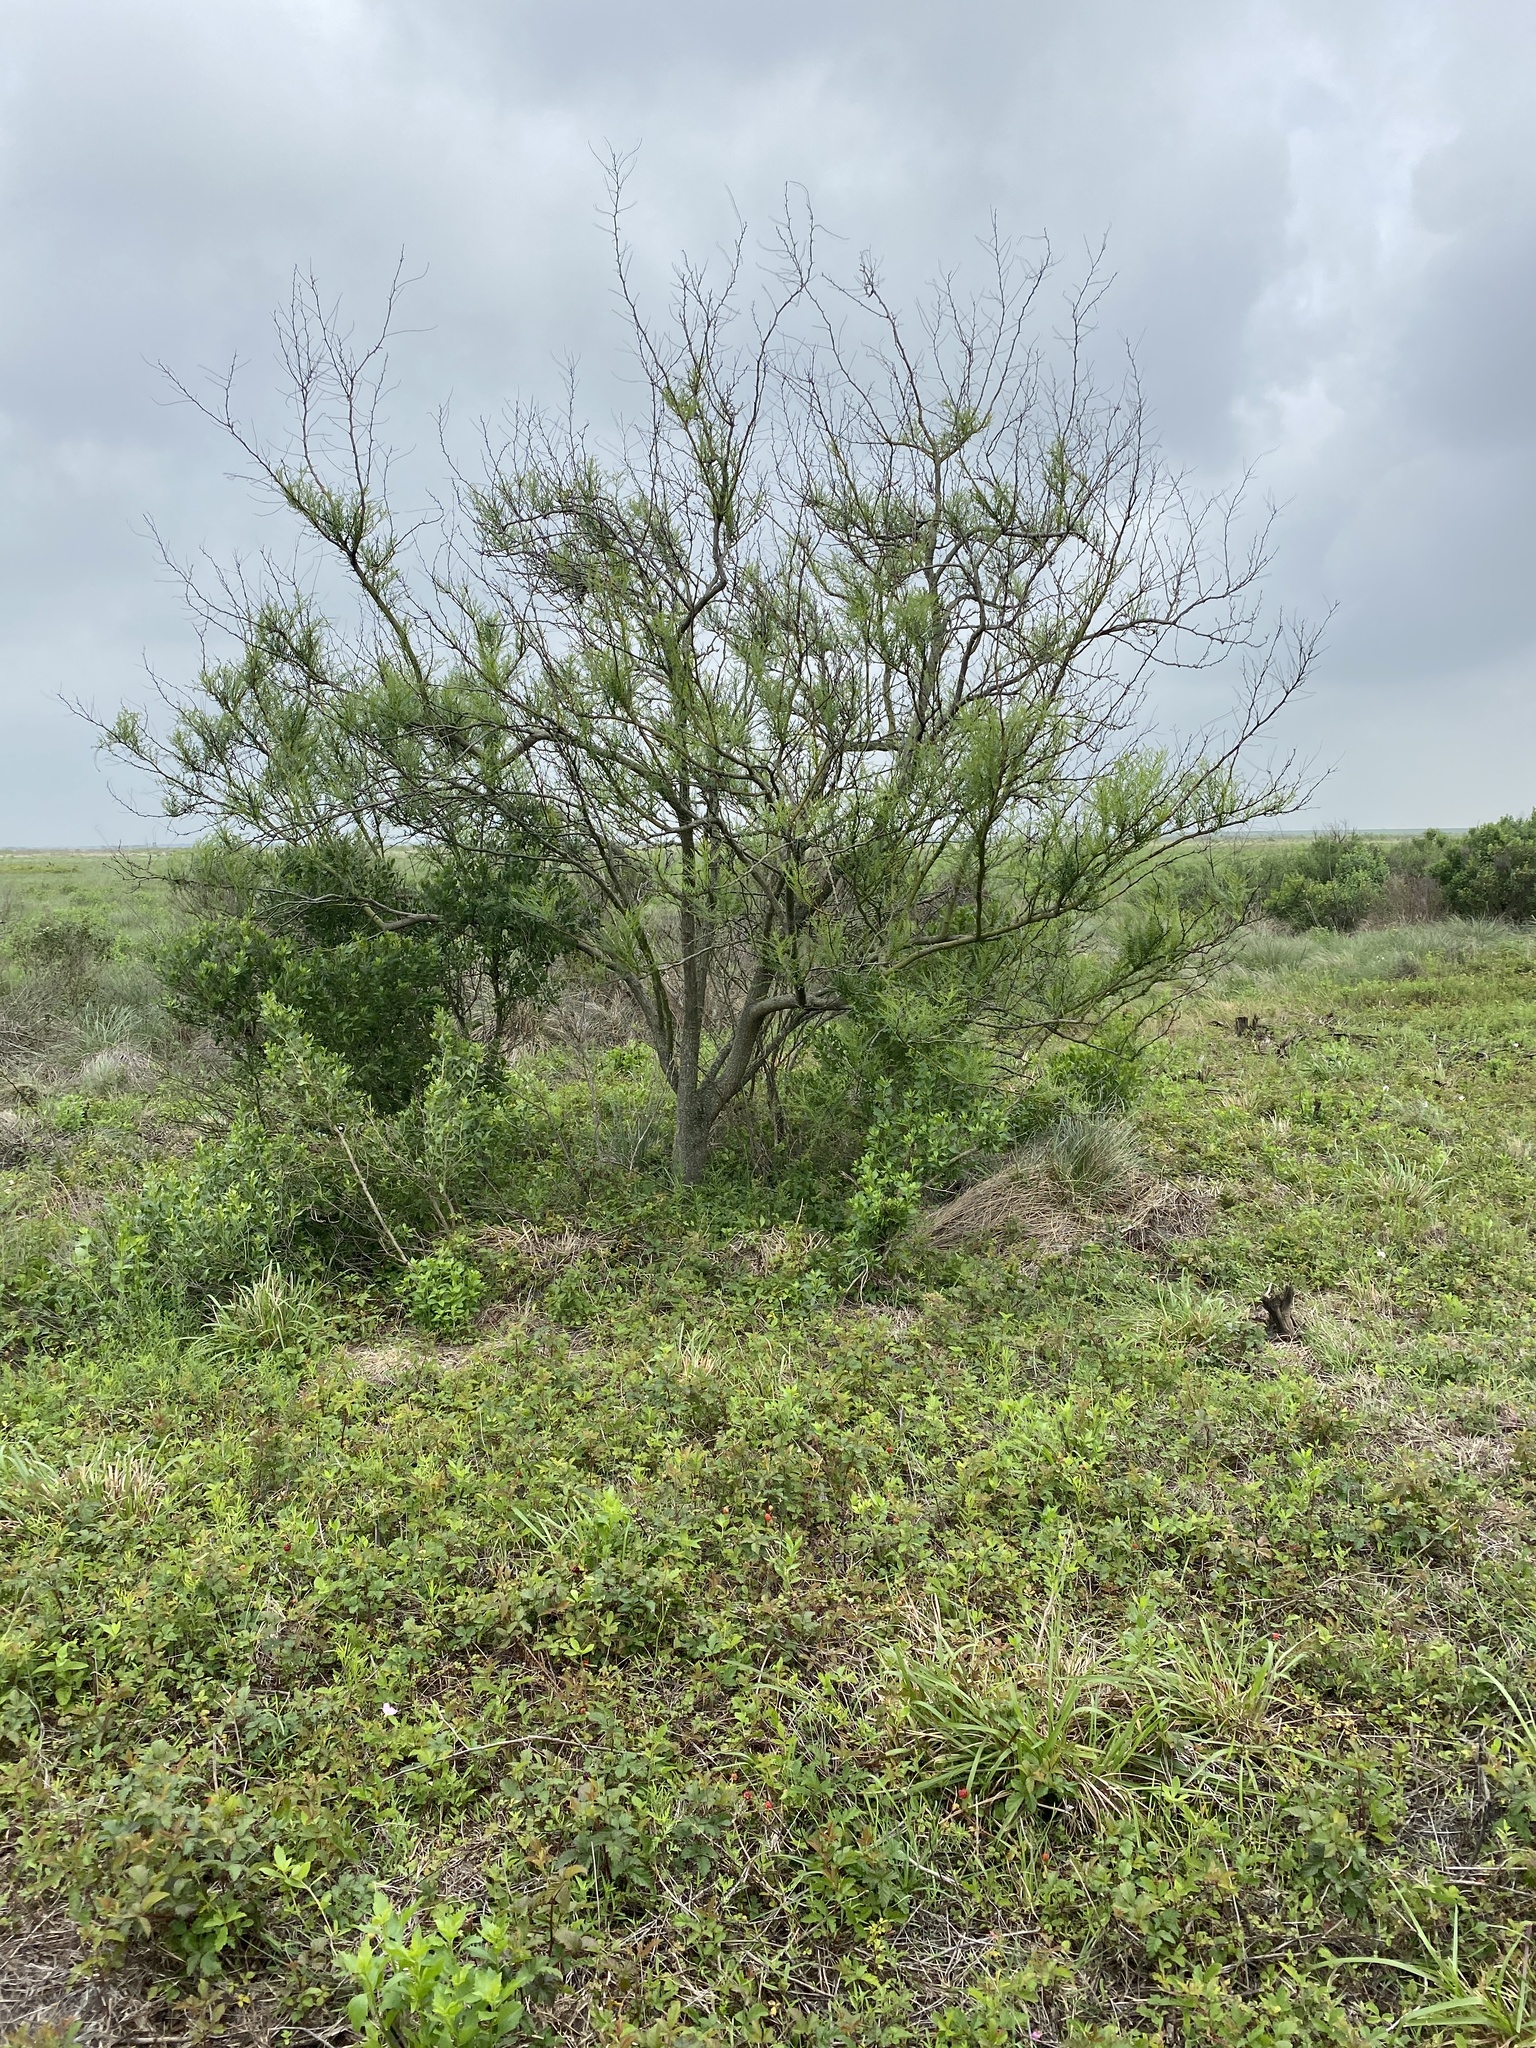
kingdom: Plantae
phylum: Tracheophyta
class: Magnoliopsida
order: Fabales
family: Fabaceae
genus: Parkinsonia
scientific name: Parkinsonia aculeata
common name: Jerusalem thorn
